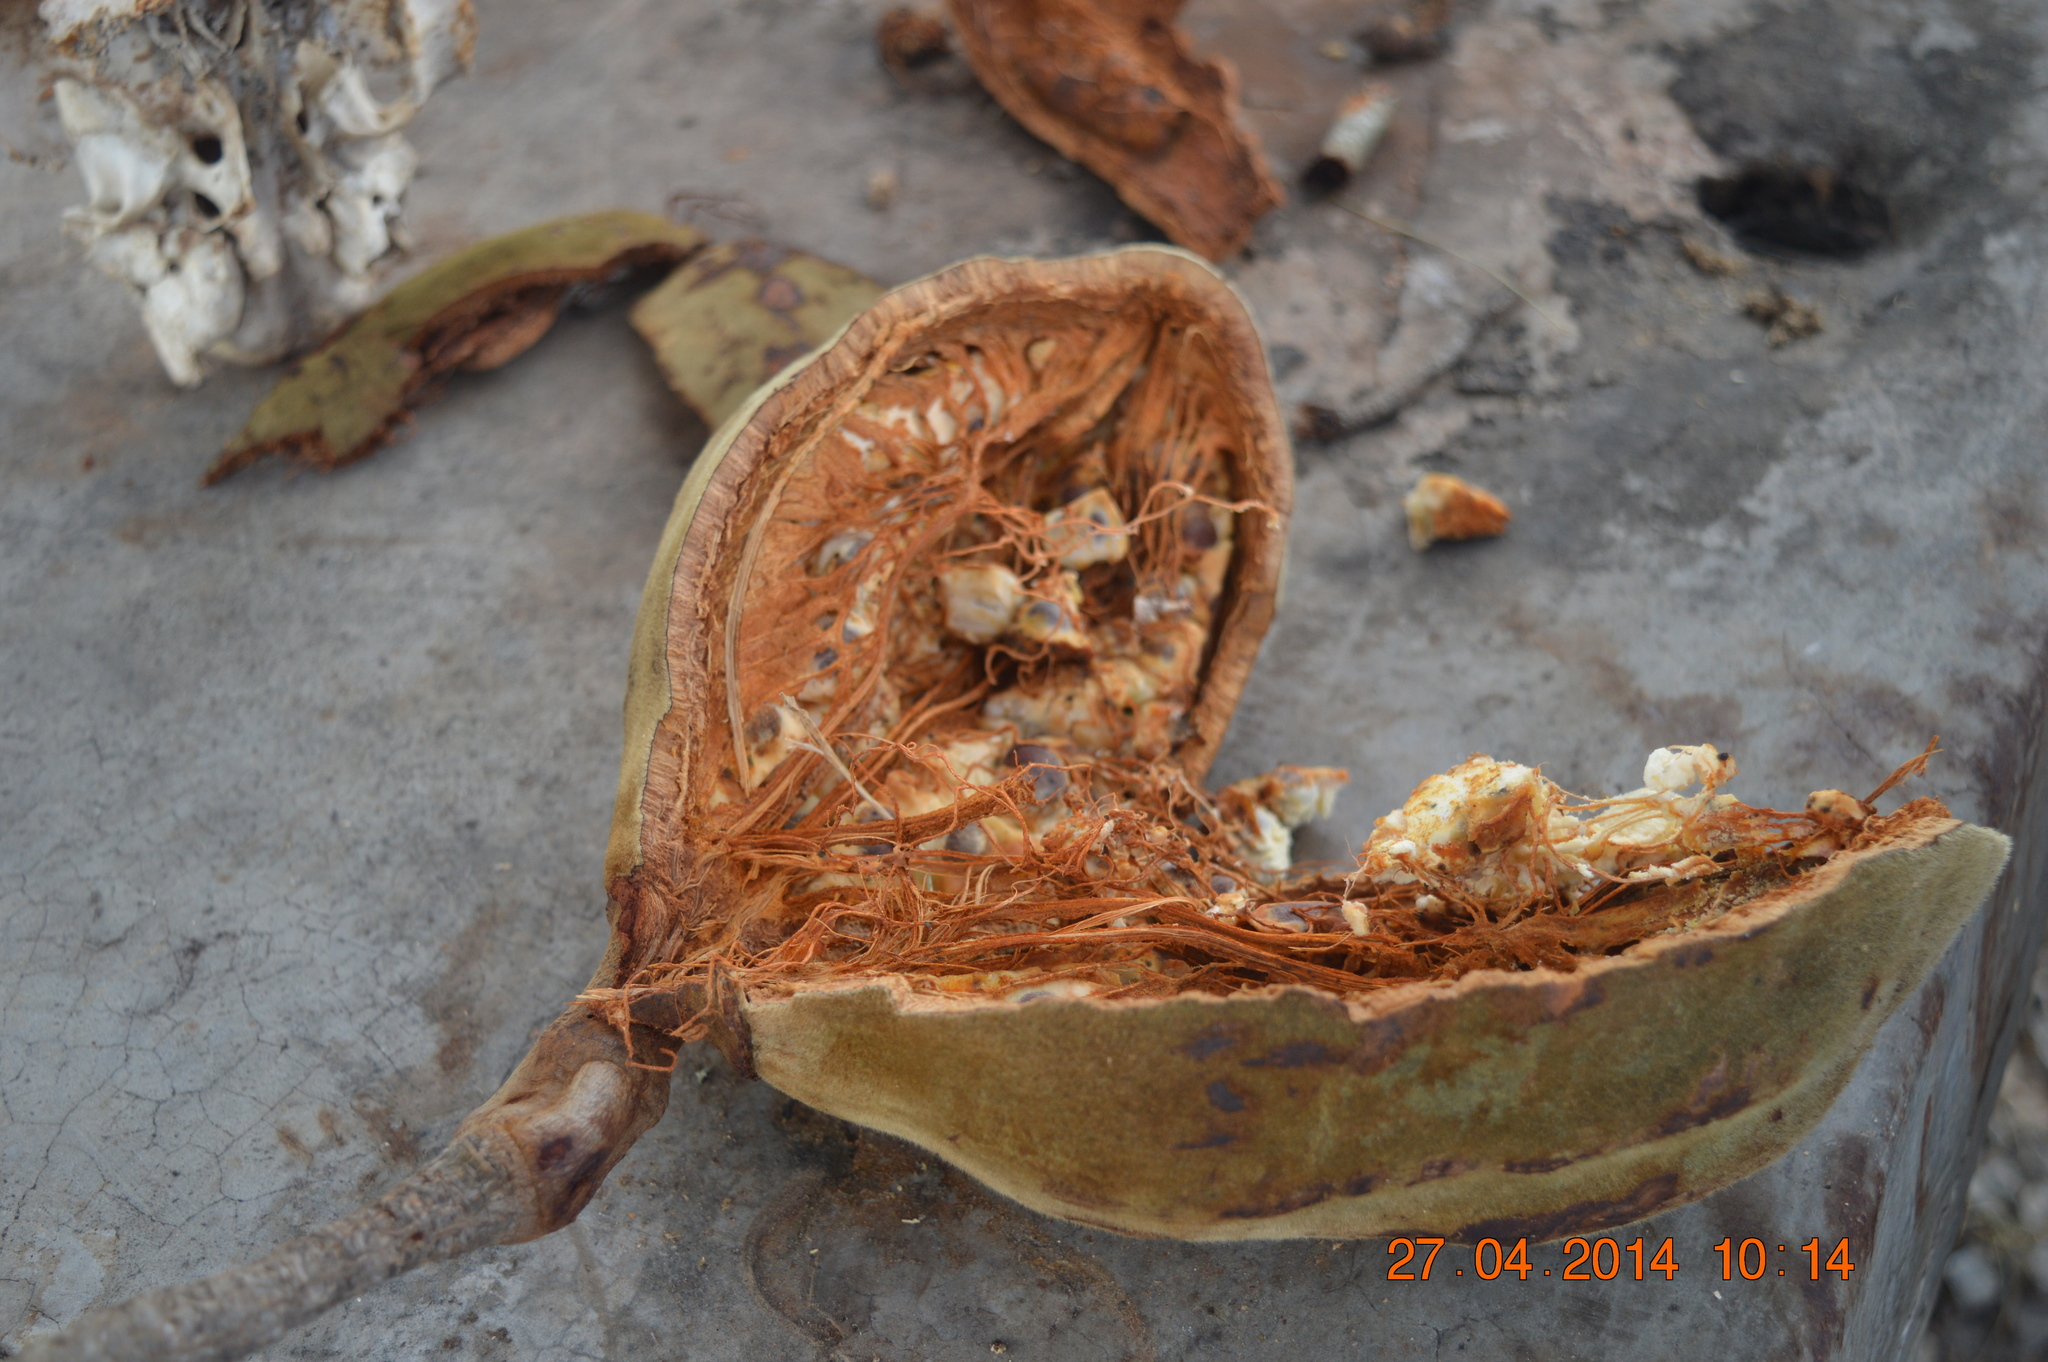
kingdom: Plantae
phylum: Tracheophyta
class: Magnoliopsida
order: Malvales
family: Malvaceae
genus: Adansonia
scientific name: Adansonia digitata
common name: Dead-rat-tree
